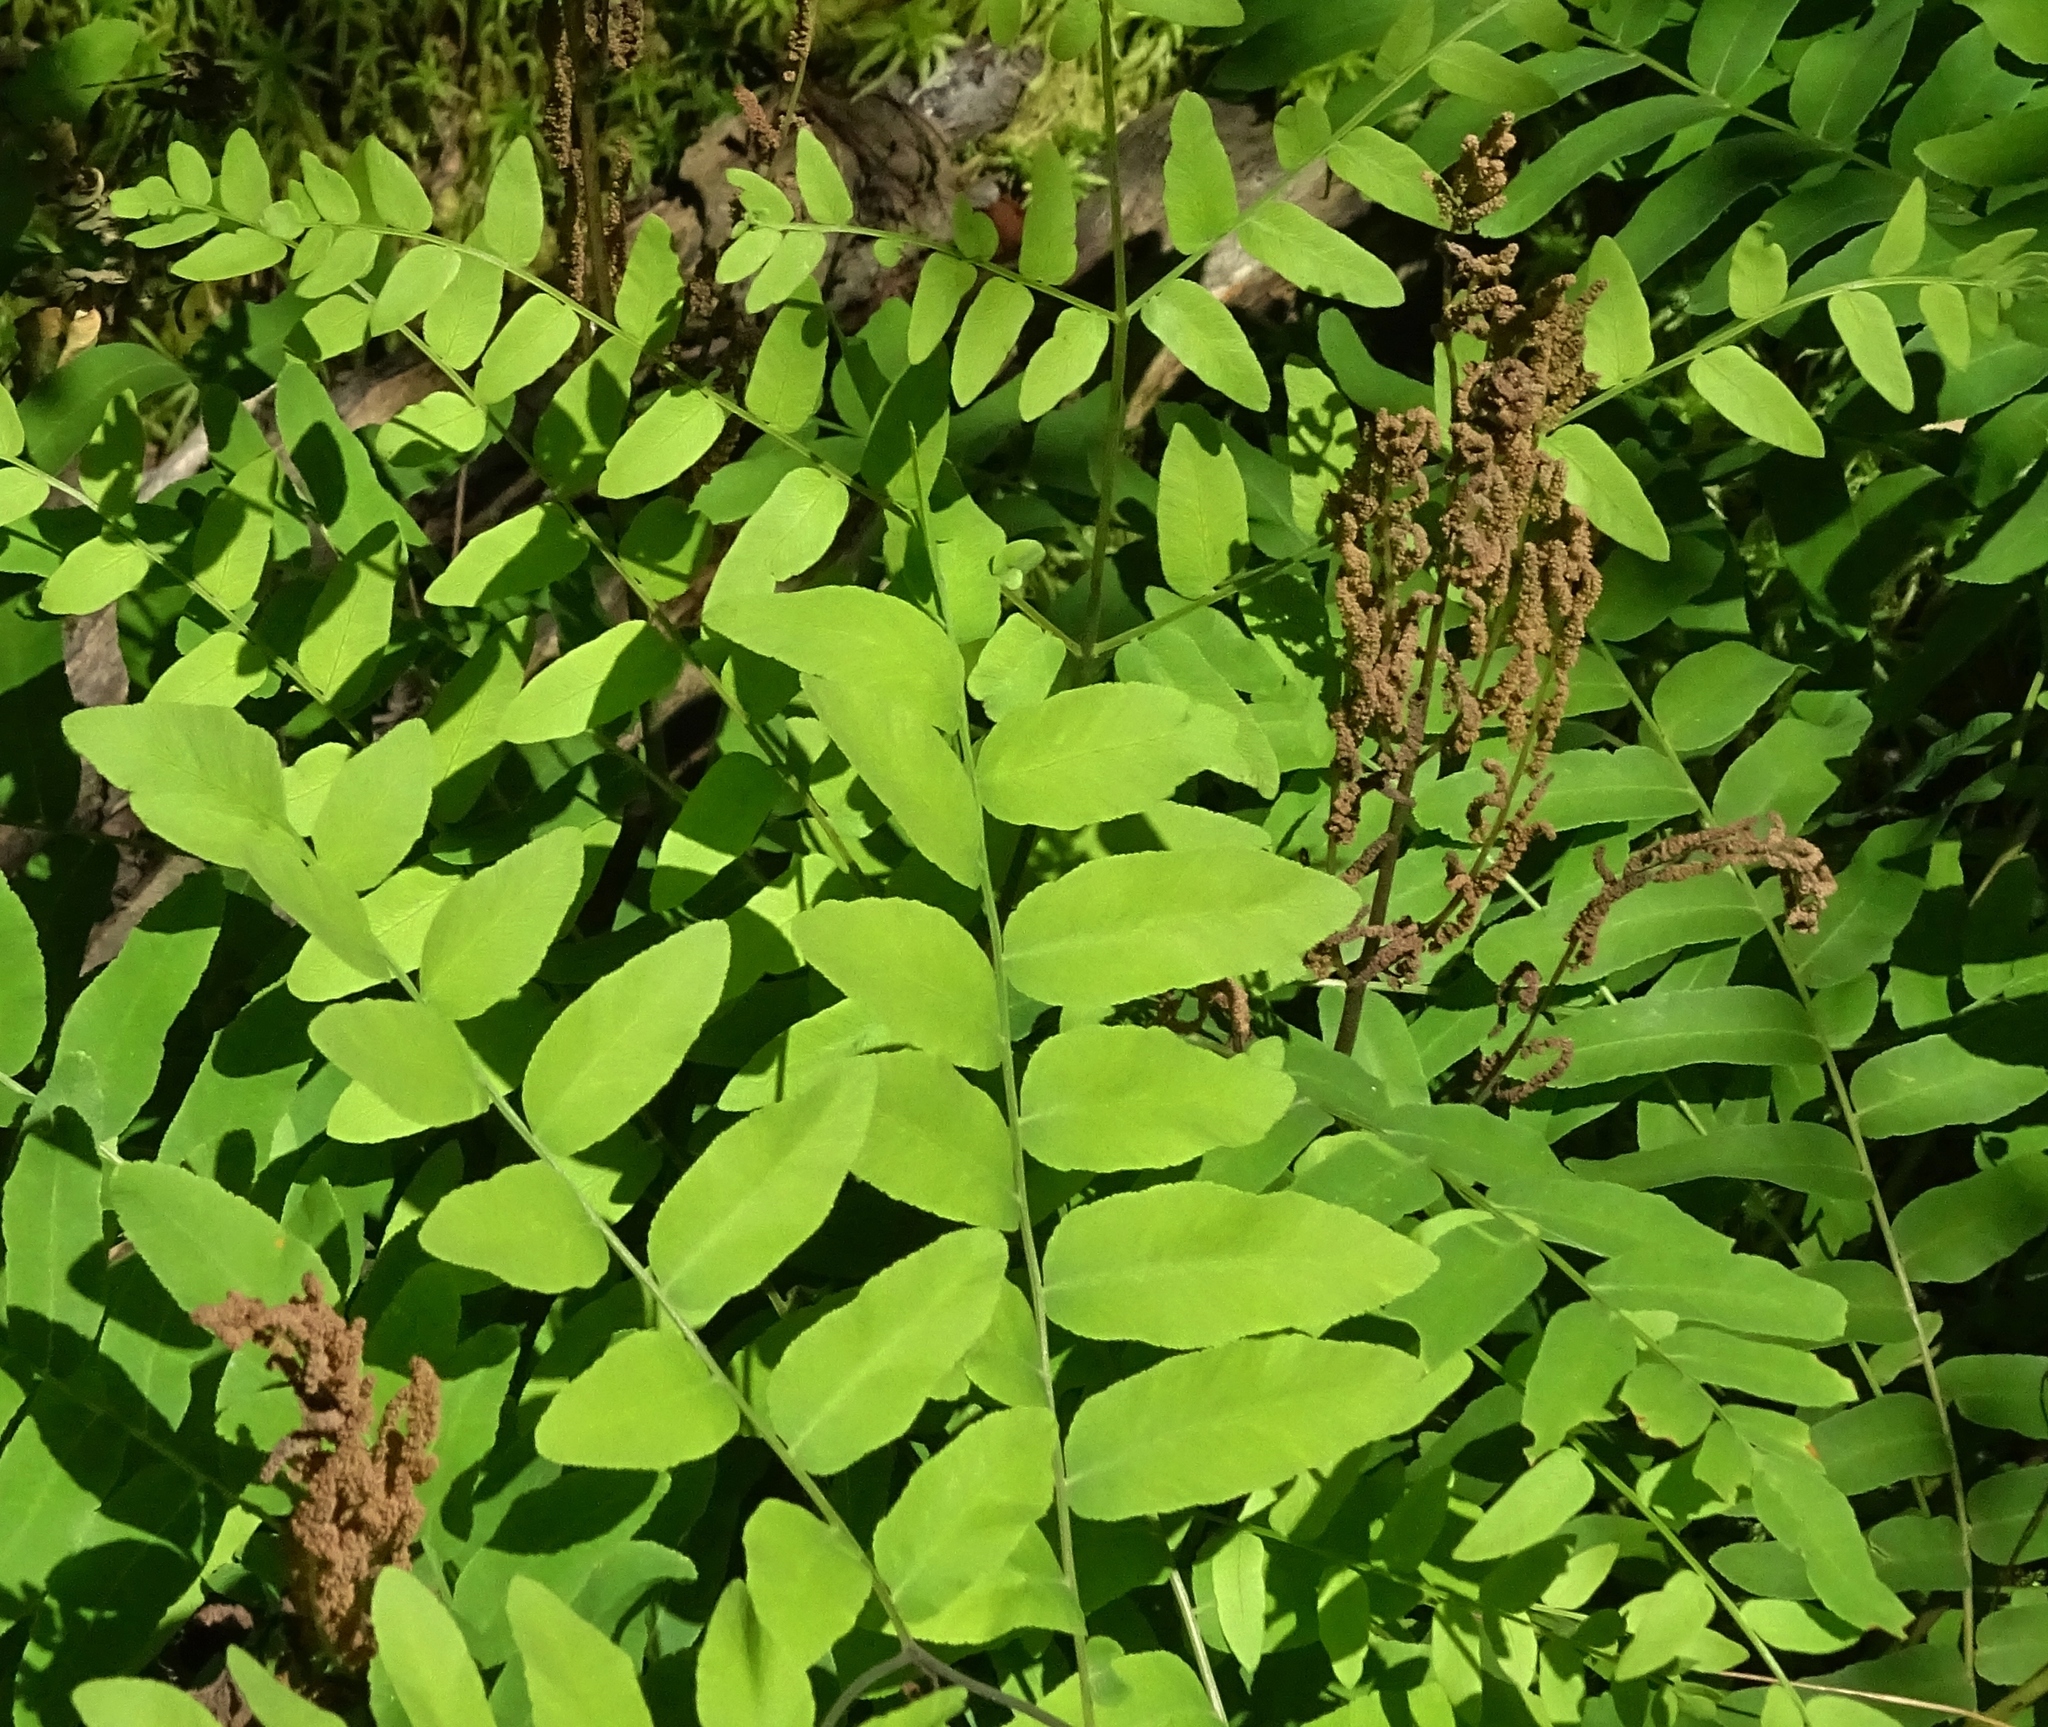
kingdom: Plantae
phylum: Tracheophyta
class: Polypodiopsida
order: Osmundales
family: Osmundaceae
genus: Osmunda
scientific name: Osmunda spectabilis
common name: American royal fern
